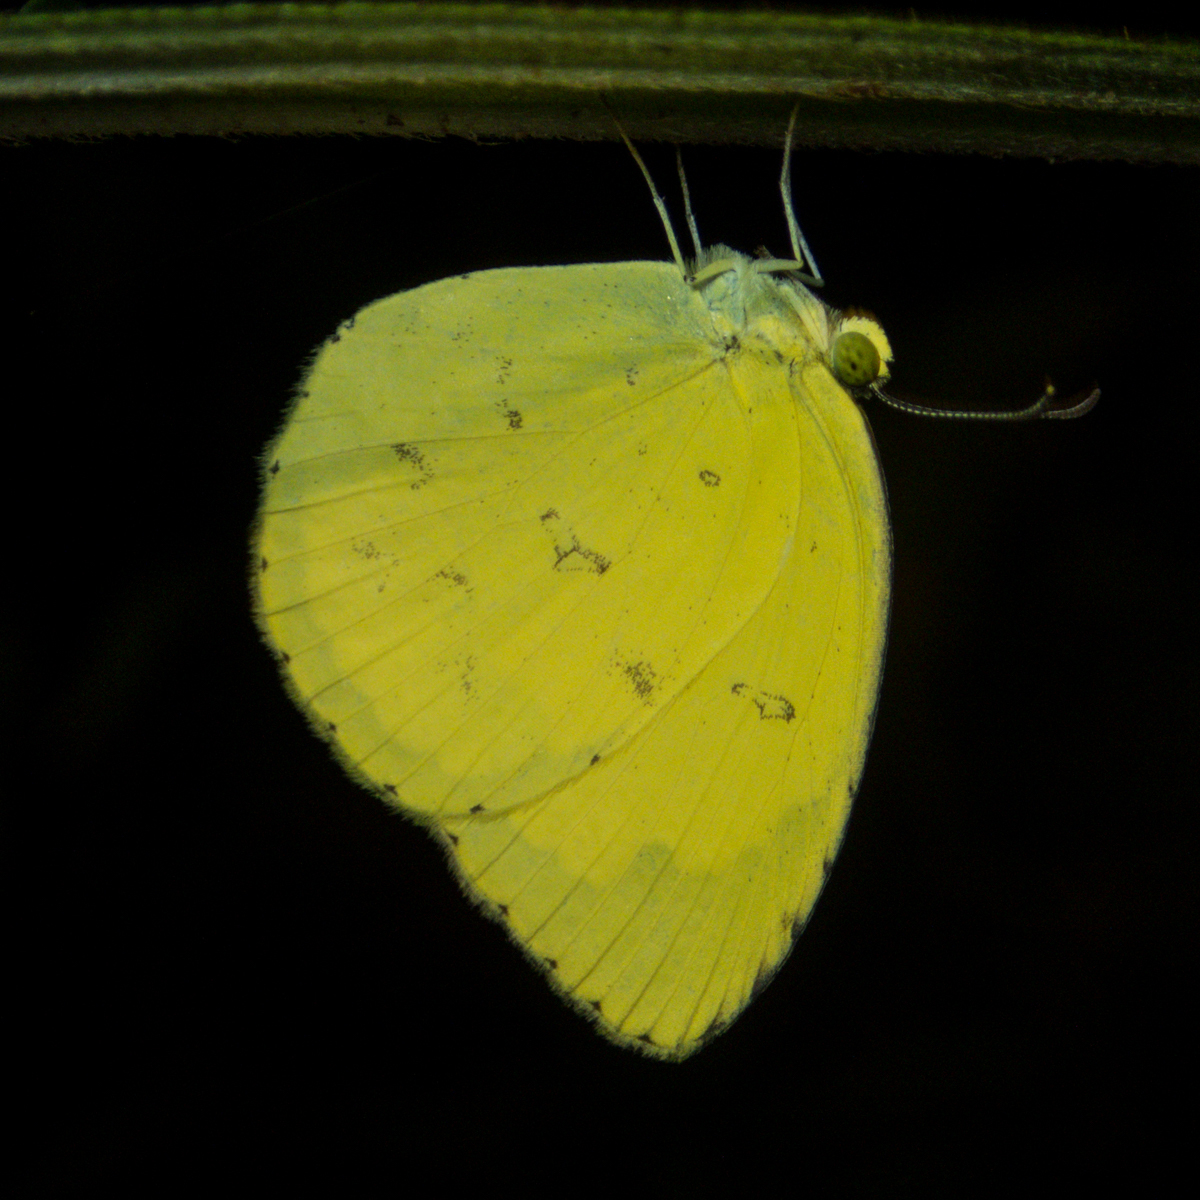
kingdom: Animalia
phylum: Arthropoda
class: Insecta
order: Lepidoptera
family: Pieridae
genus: Eurema
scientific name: Eurema hecabe
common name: Pale grass yellow
